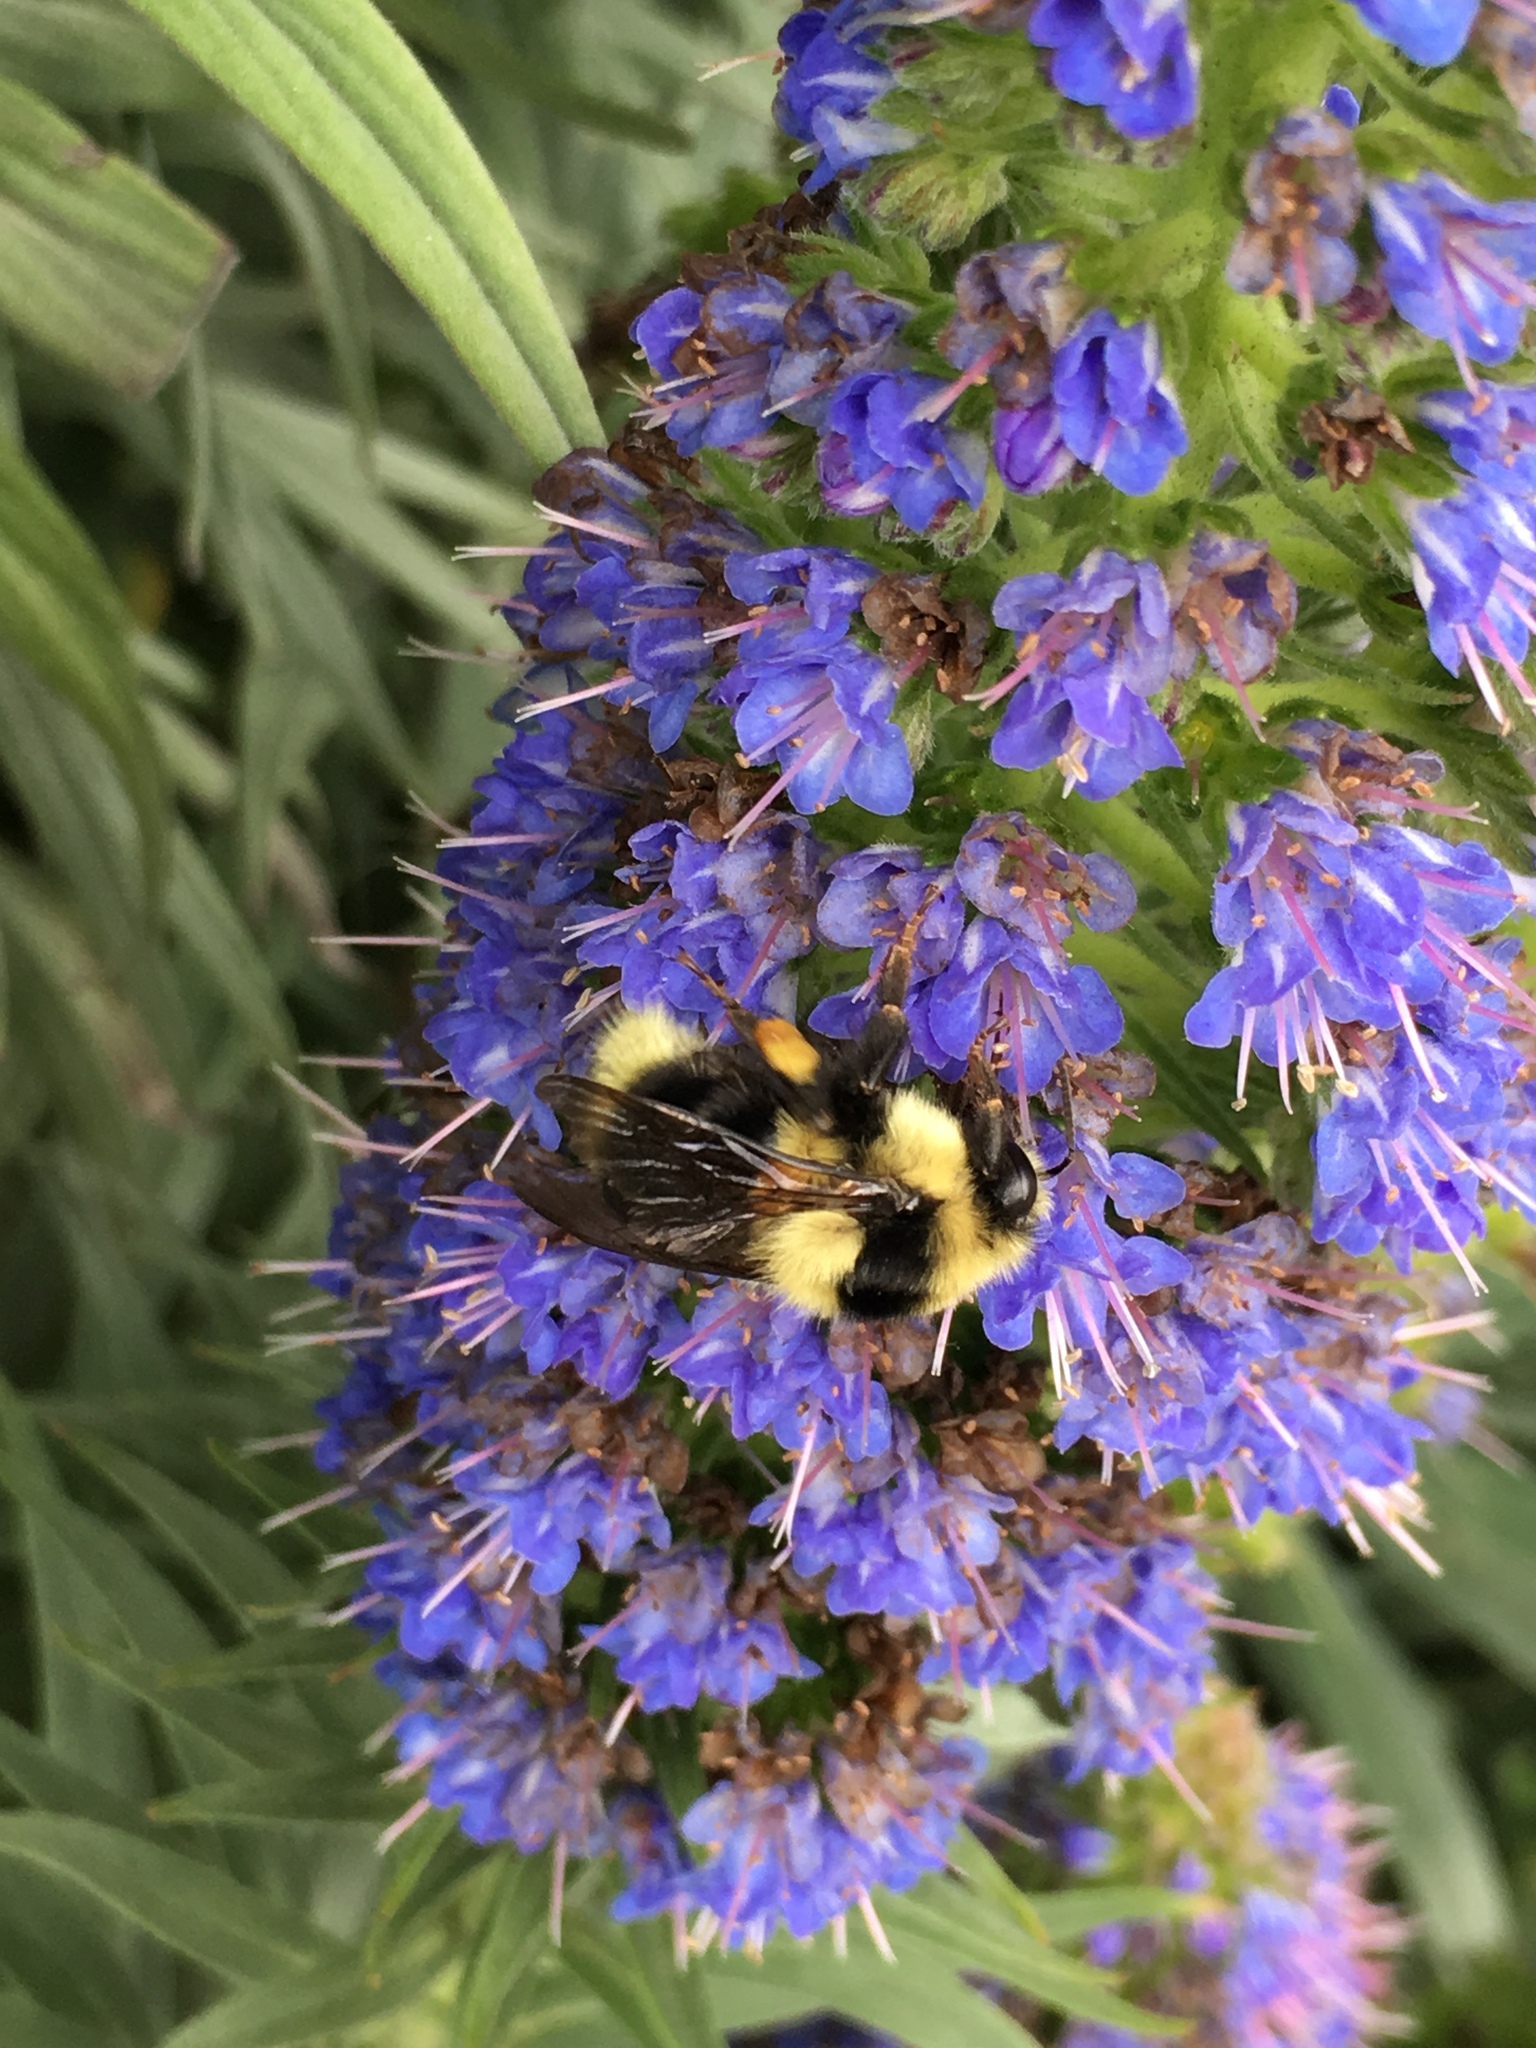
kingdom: Animalia
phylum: Arthropoda
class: Insecta
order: Hymenoptera
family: Apidae
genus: Bombus
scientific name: Bombus melanopygus
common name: Black tail bumble bee
